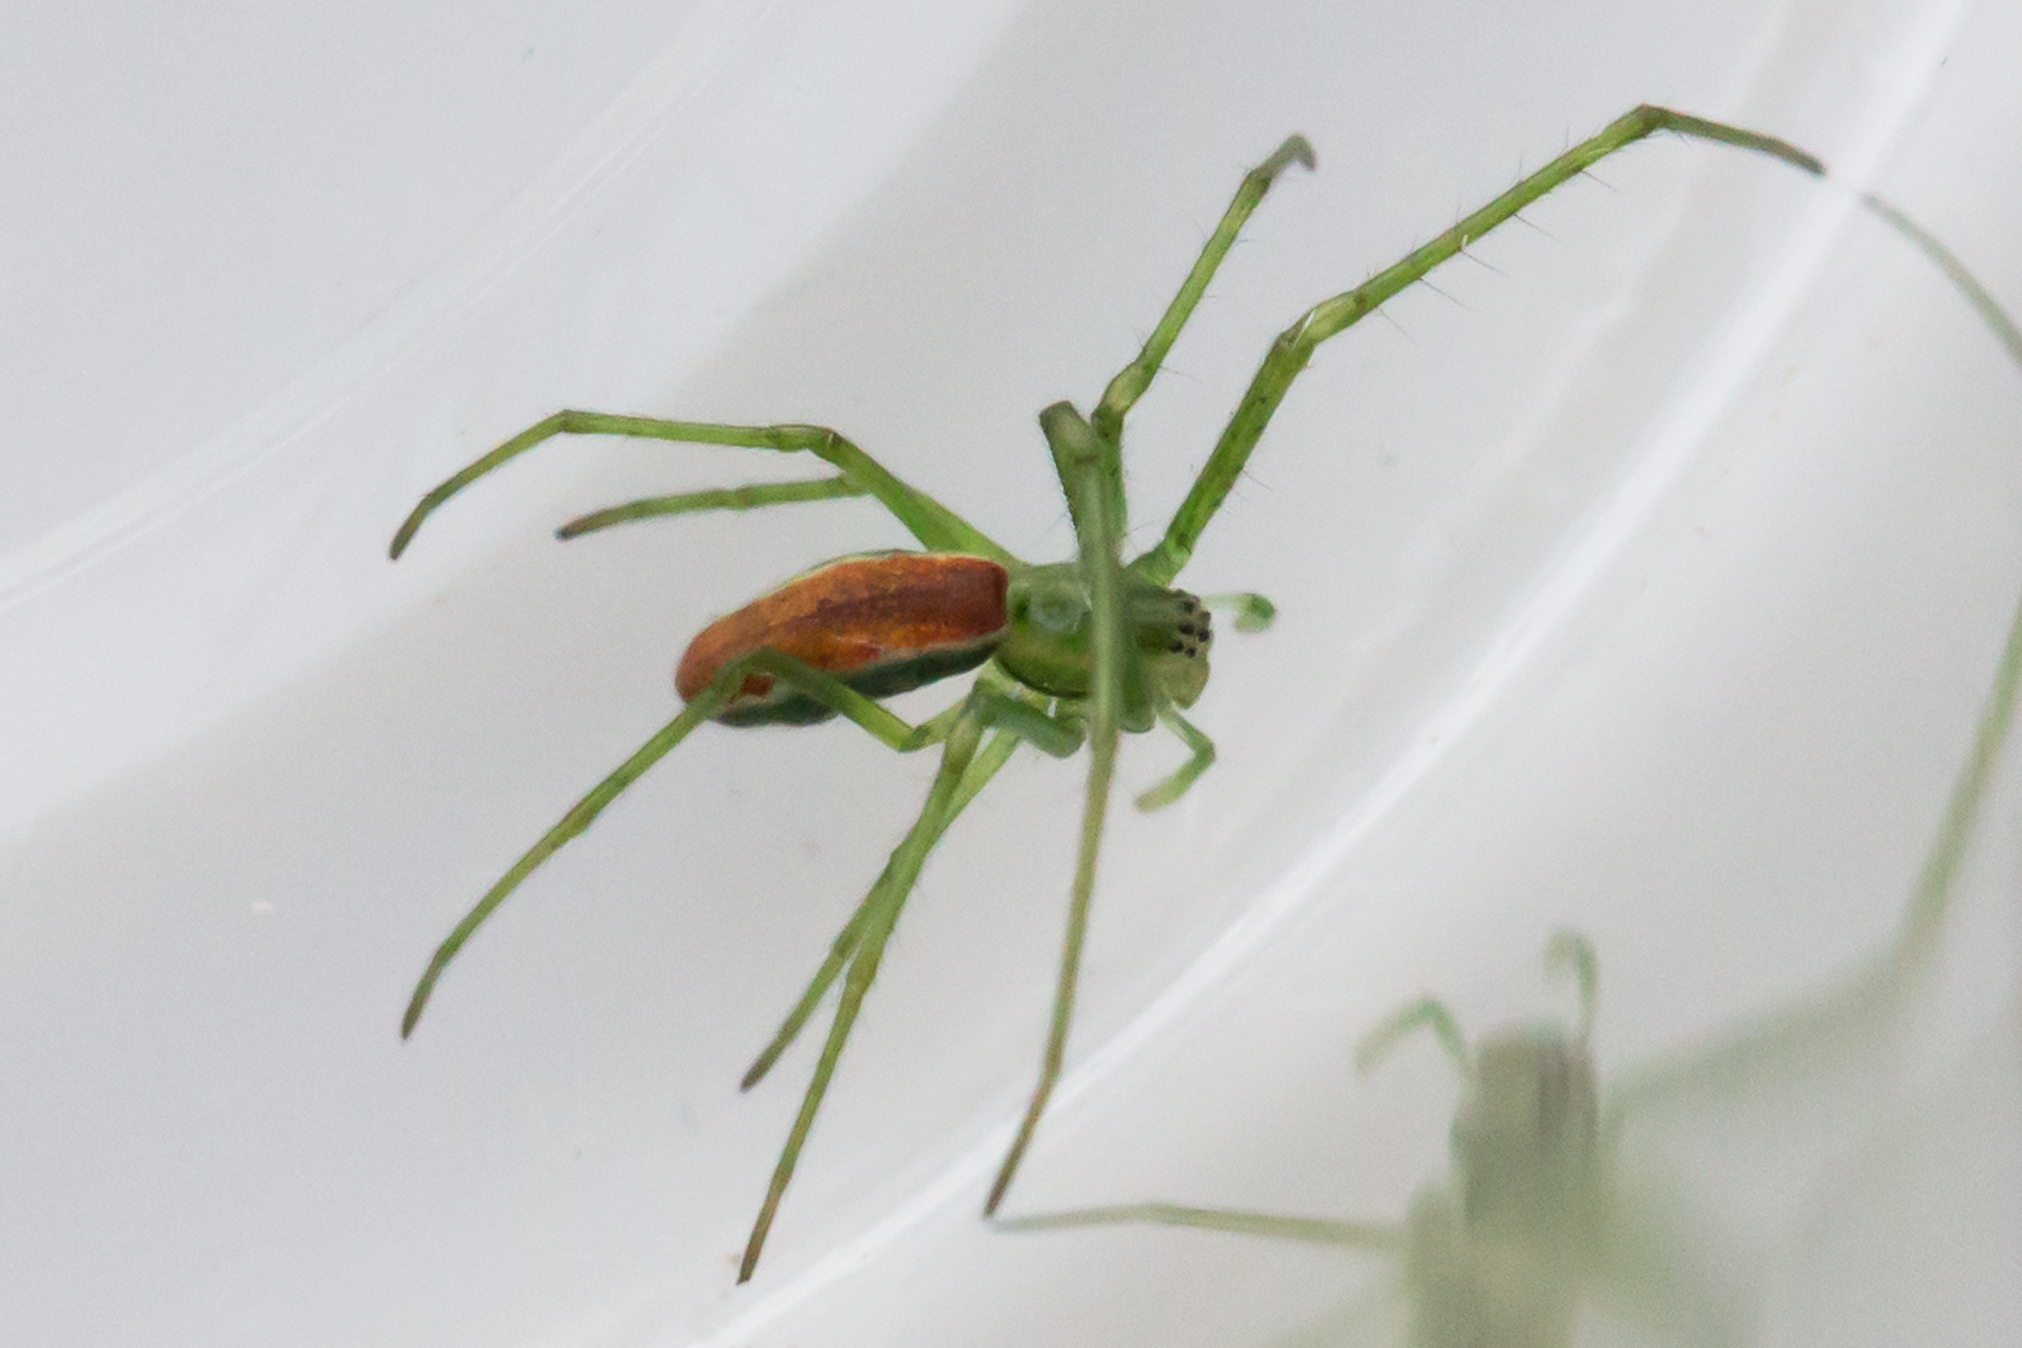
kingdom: Animalia
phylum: Arthropoda
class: Arachnida
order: Araneae
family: Tetragnathidae
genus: Tetragnatha
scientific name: Tetragnatha viridis
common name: Green long-jawed spider
